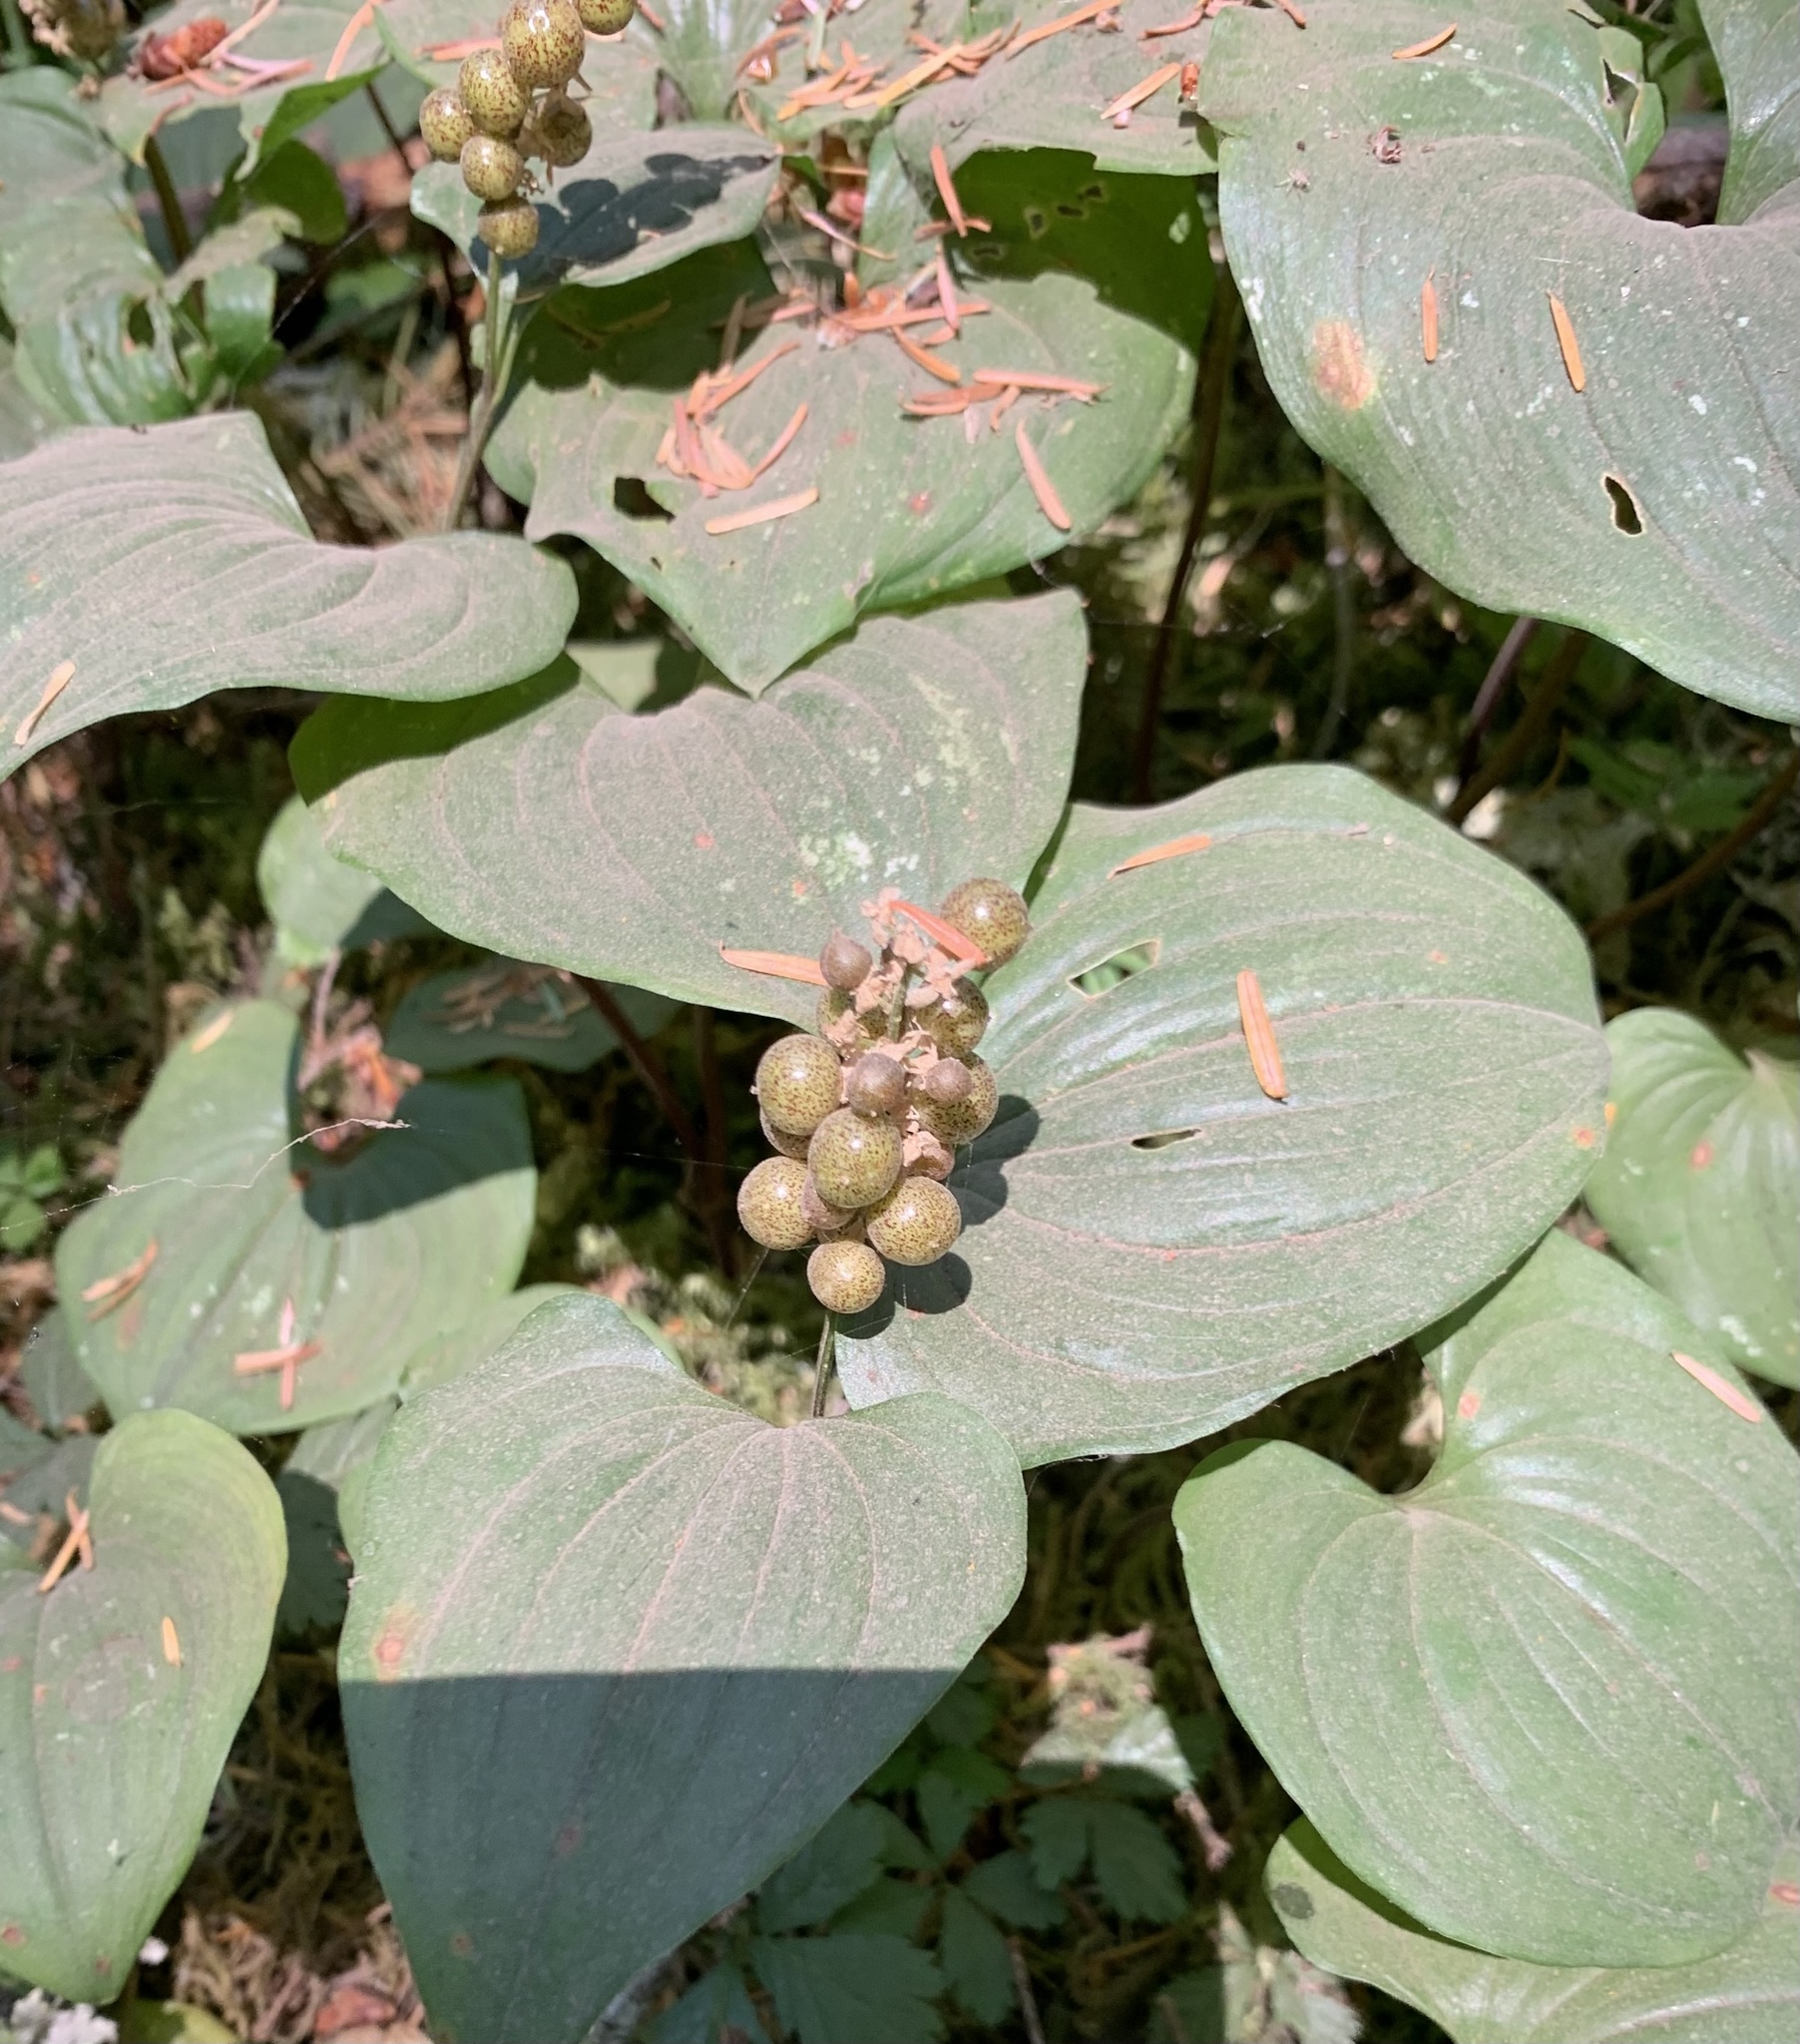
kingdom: Plantae
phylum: Tracheophyta
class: Liliopsida
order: Asparagales
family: Asparagaceae
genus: Maianthemum
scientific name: Maianthemum dilatatum
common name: False lily-of-the-valley
